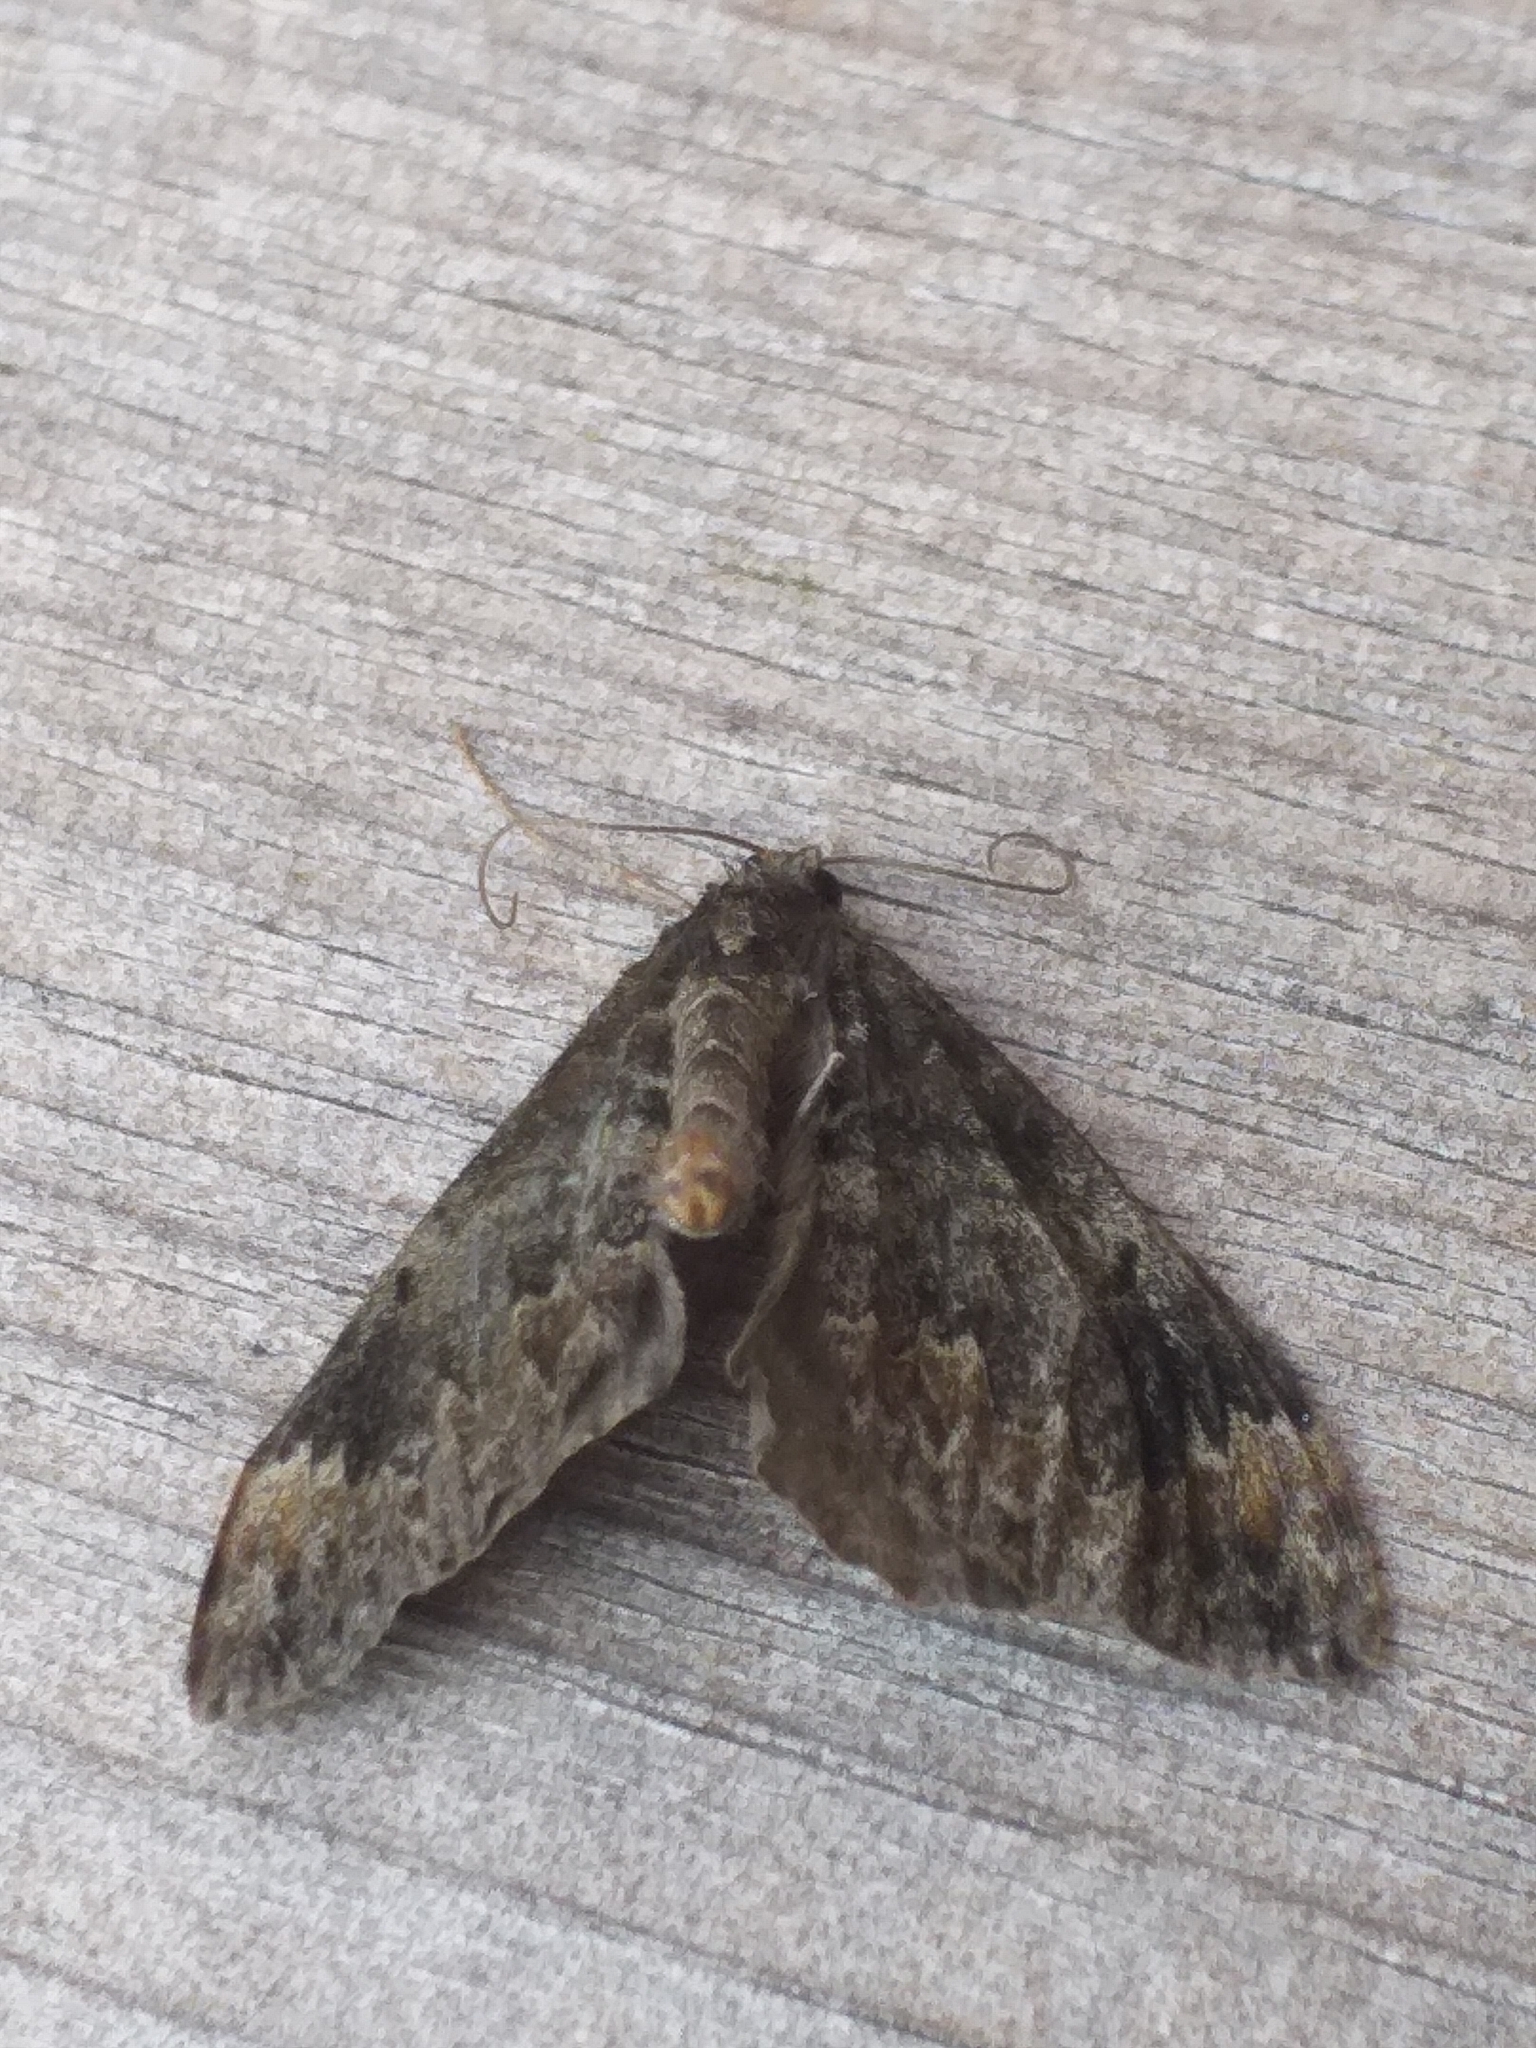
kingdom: Animalia
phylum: Arthropoda
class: Insecta
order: Lepidoptera
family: Geometridae
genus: Dysstroma
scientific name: Dysstroma truncata
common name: Common marbled carpet
